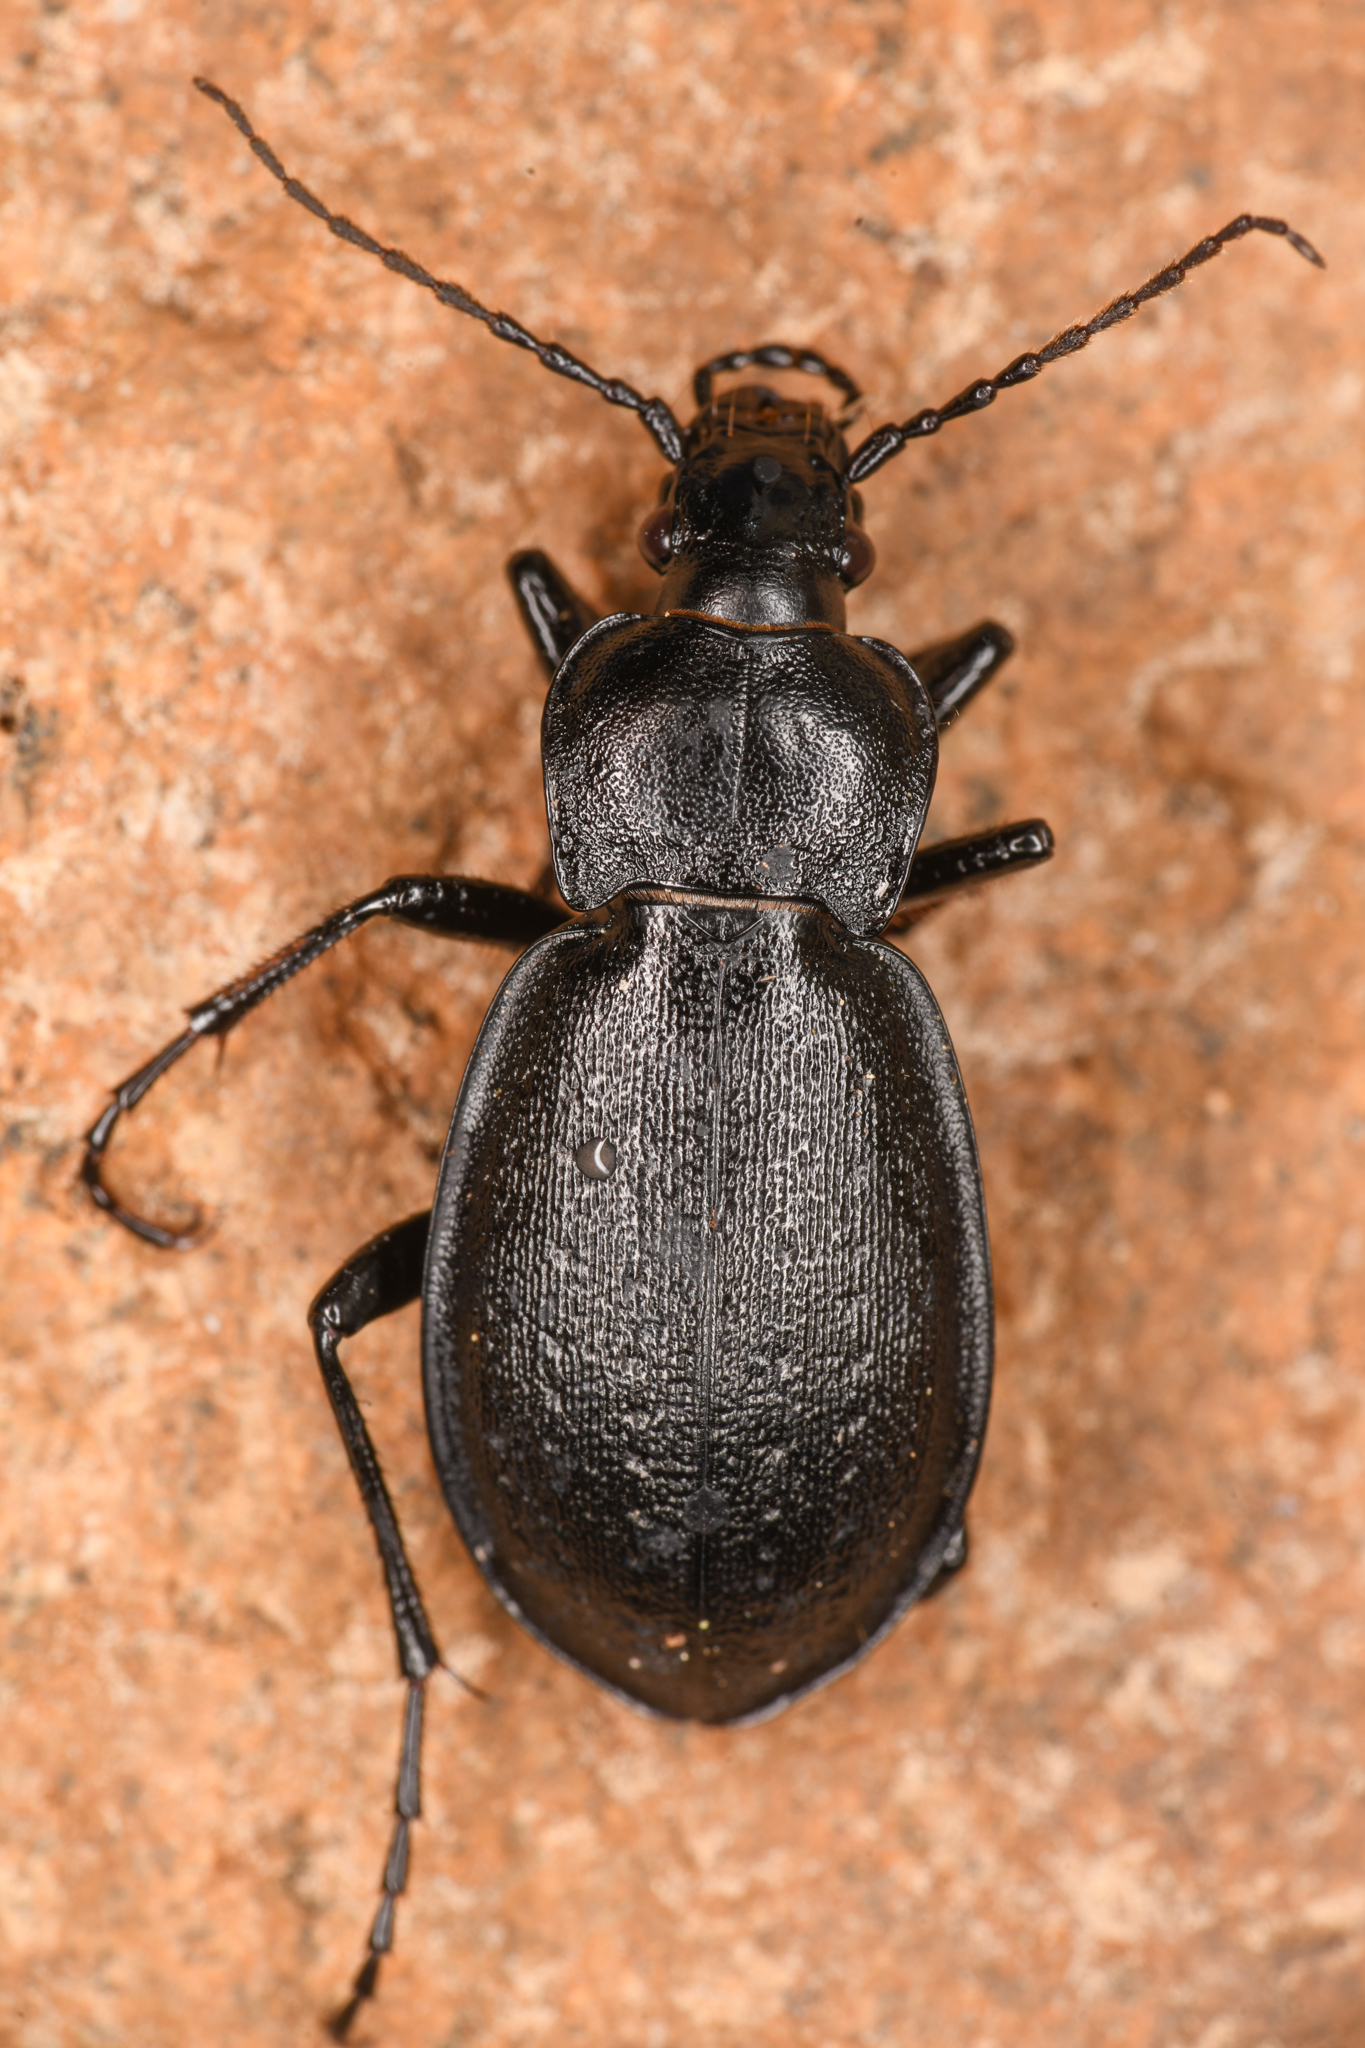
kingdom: Animalia
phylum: Arthropoda
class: Insecta
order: Coleoptera
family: Carabidae
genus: Carabus
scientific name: Carabus taedatus
